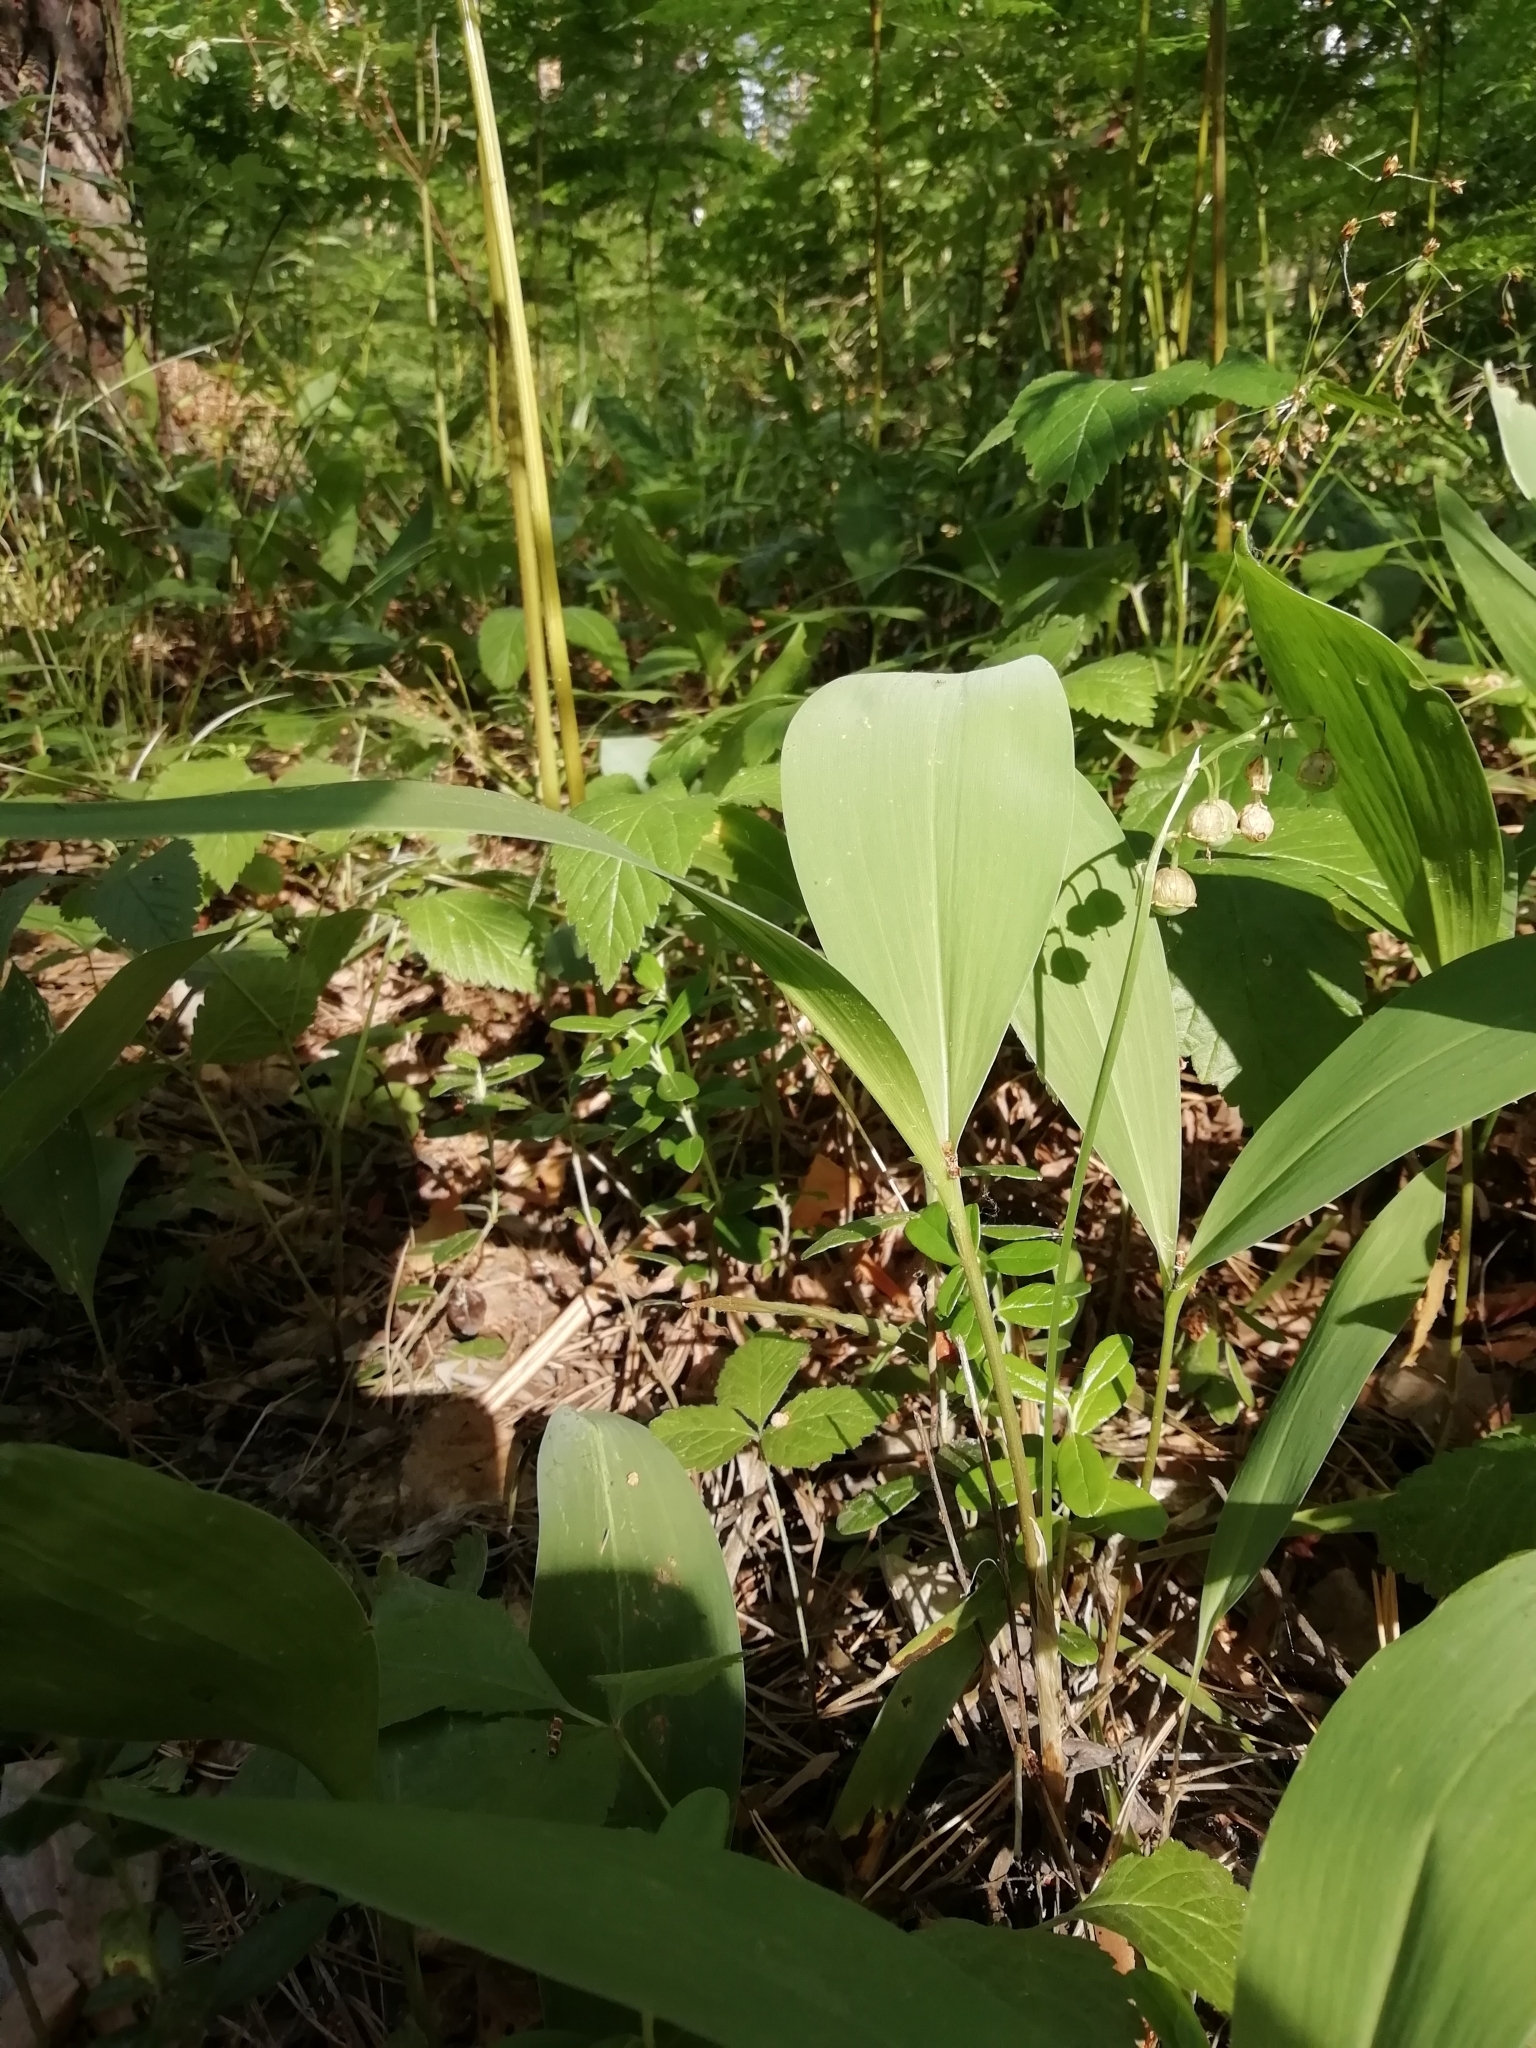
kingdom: Plantae
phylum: Tracheophyta
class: Liliopsida
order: Asparagales
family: Asparagaceae
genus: Convallaria
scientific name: Convallaria majalis
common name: Lily-of-the-valley
